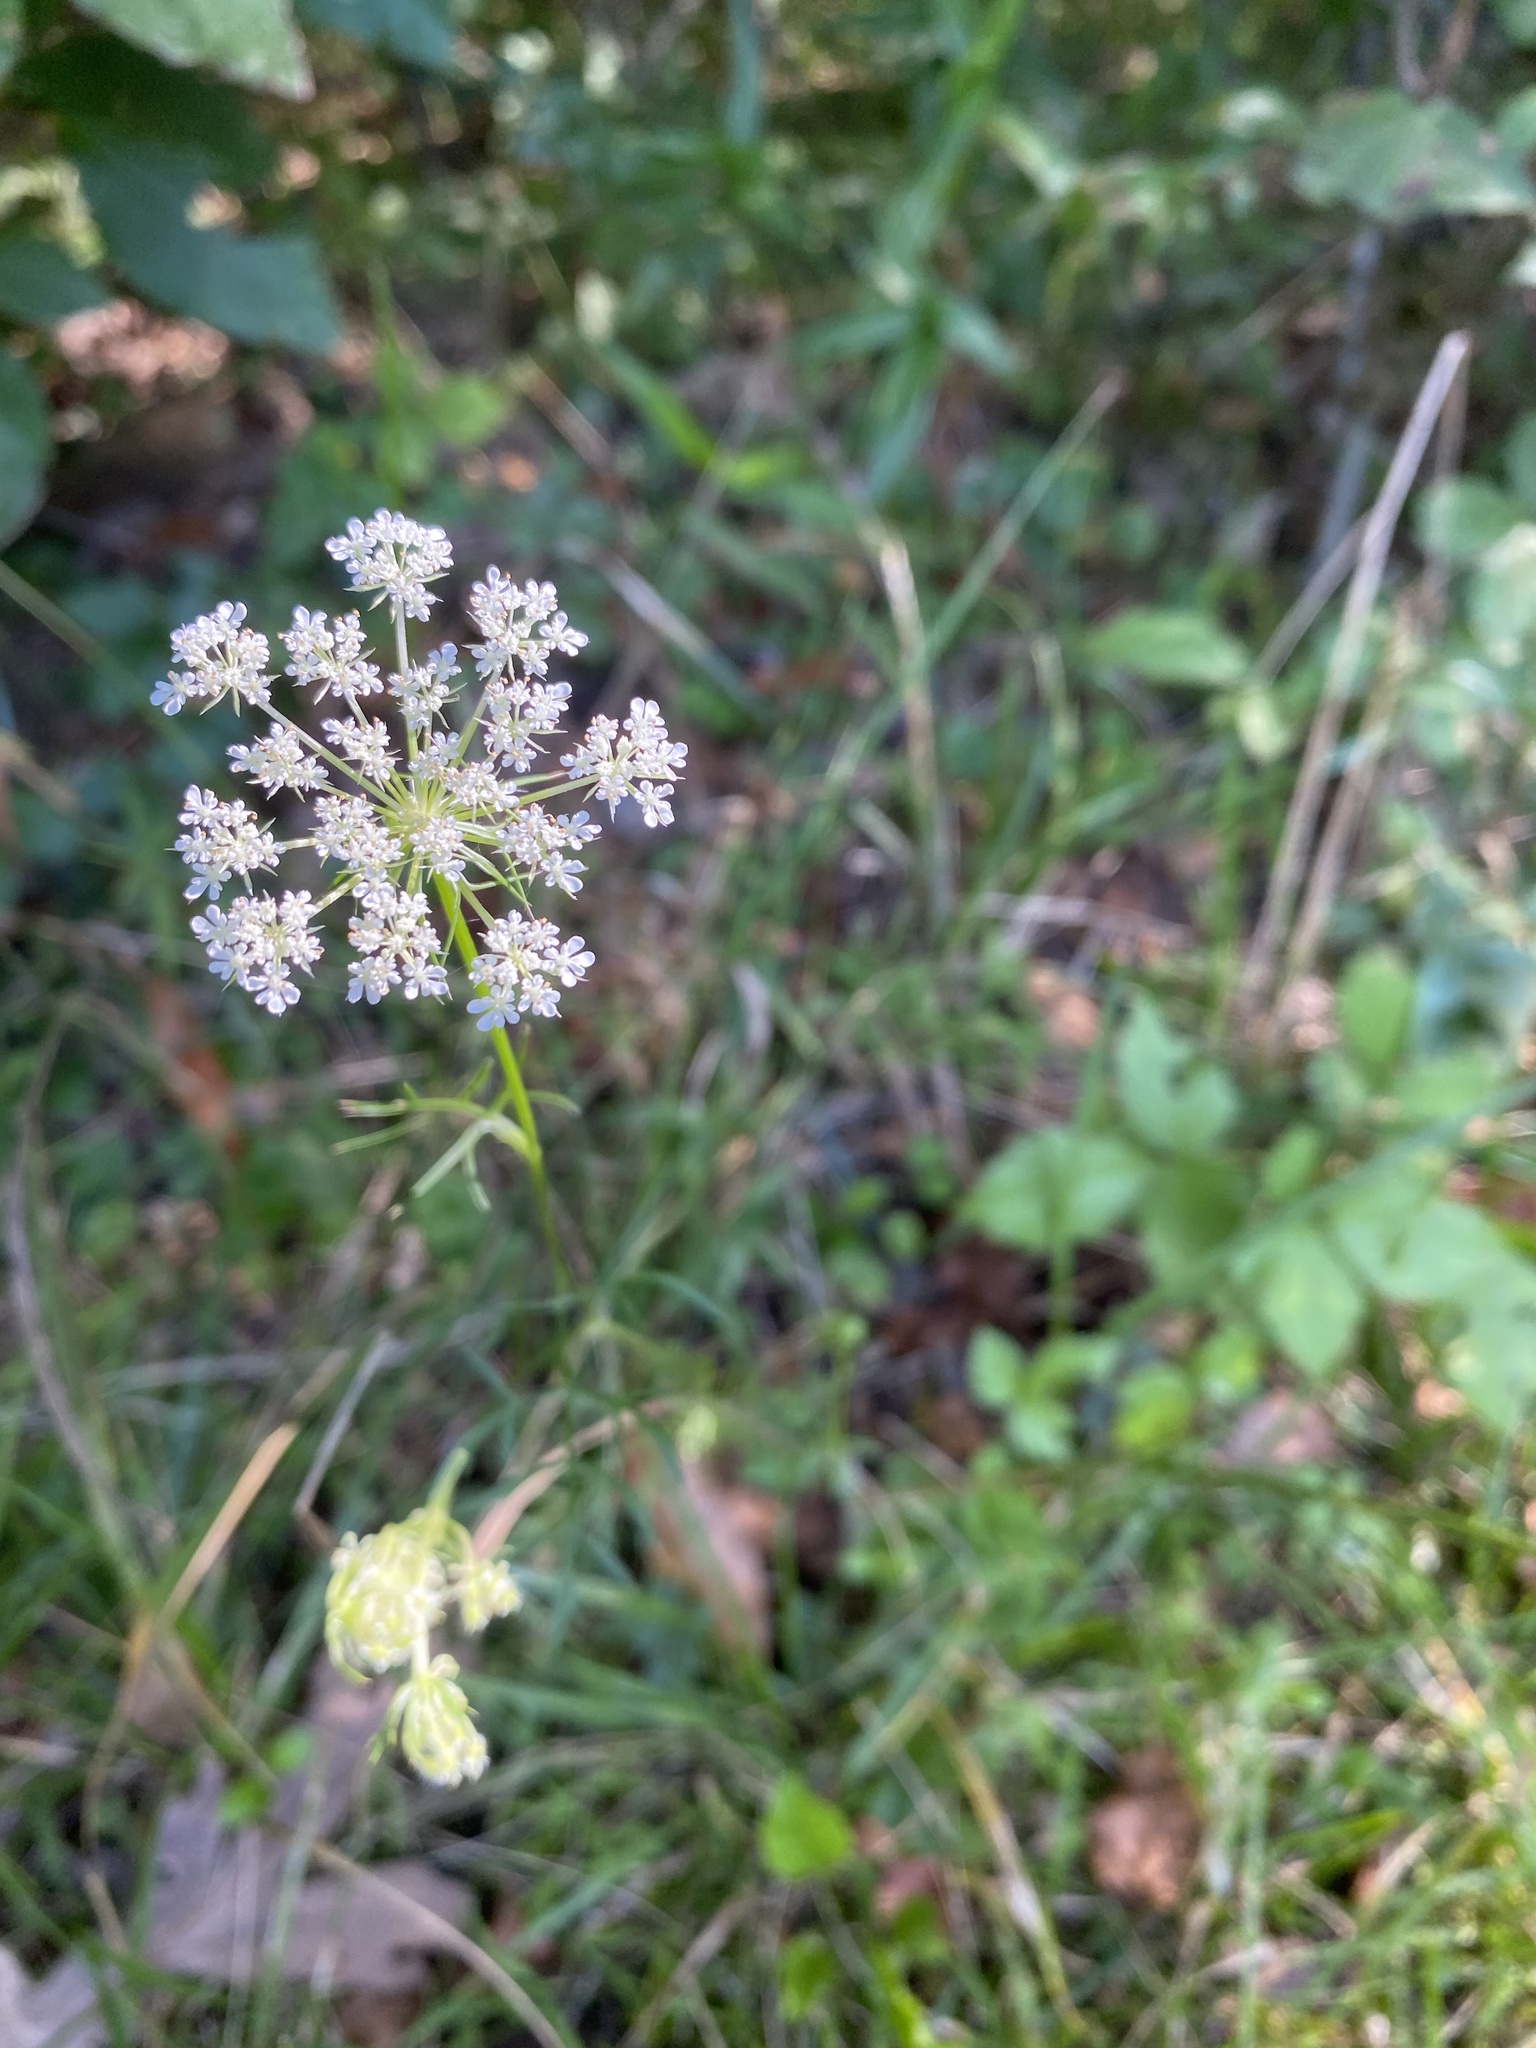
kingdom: Plantae
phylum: Tracheophyta
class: Magnoliopsida
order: Apiales
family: Apiaceae
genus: Daucus
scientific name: Daucus carota
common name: Wild carrot
